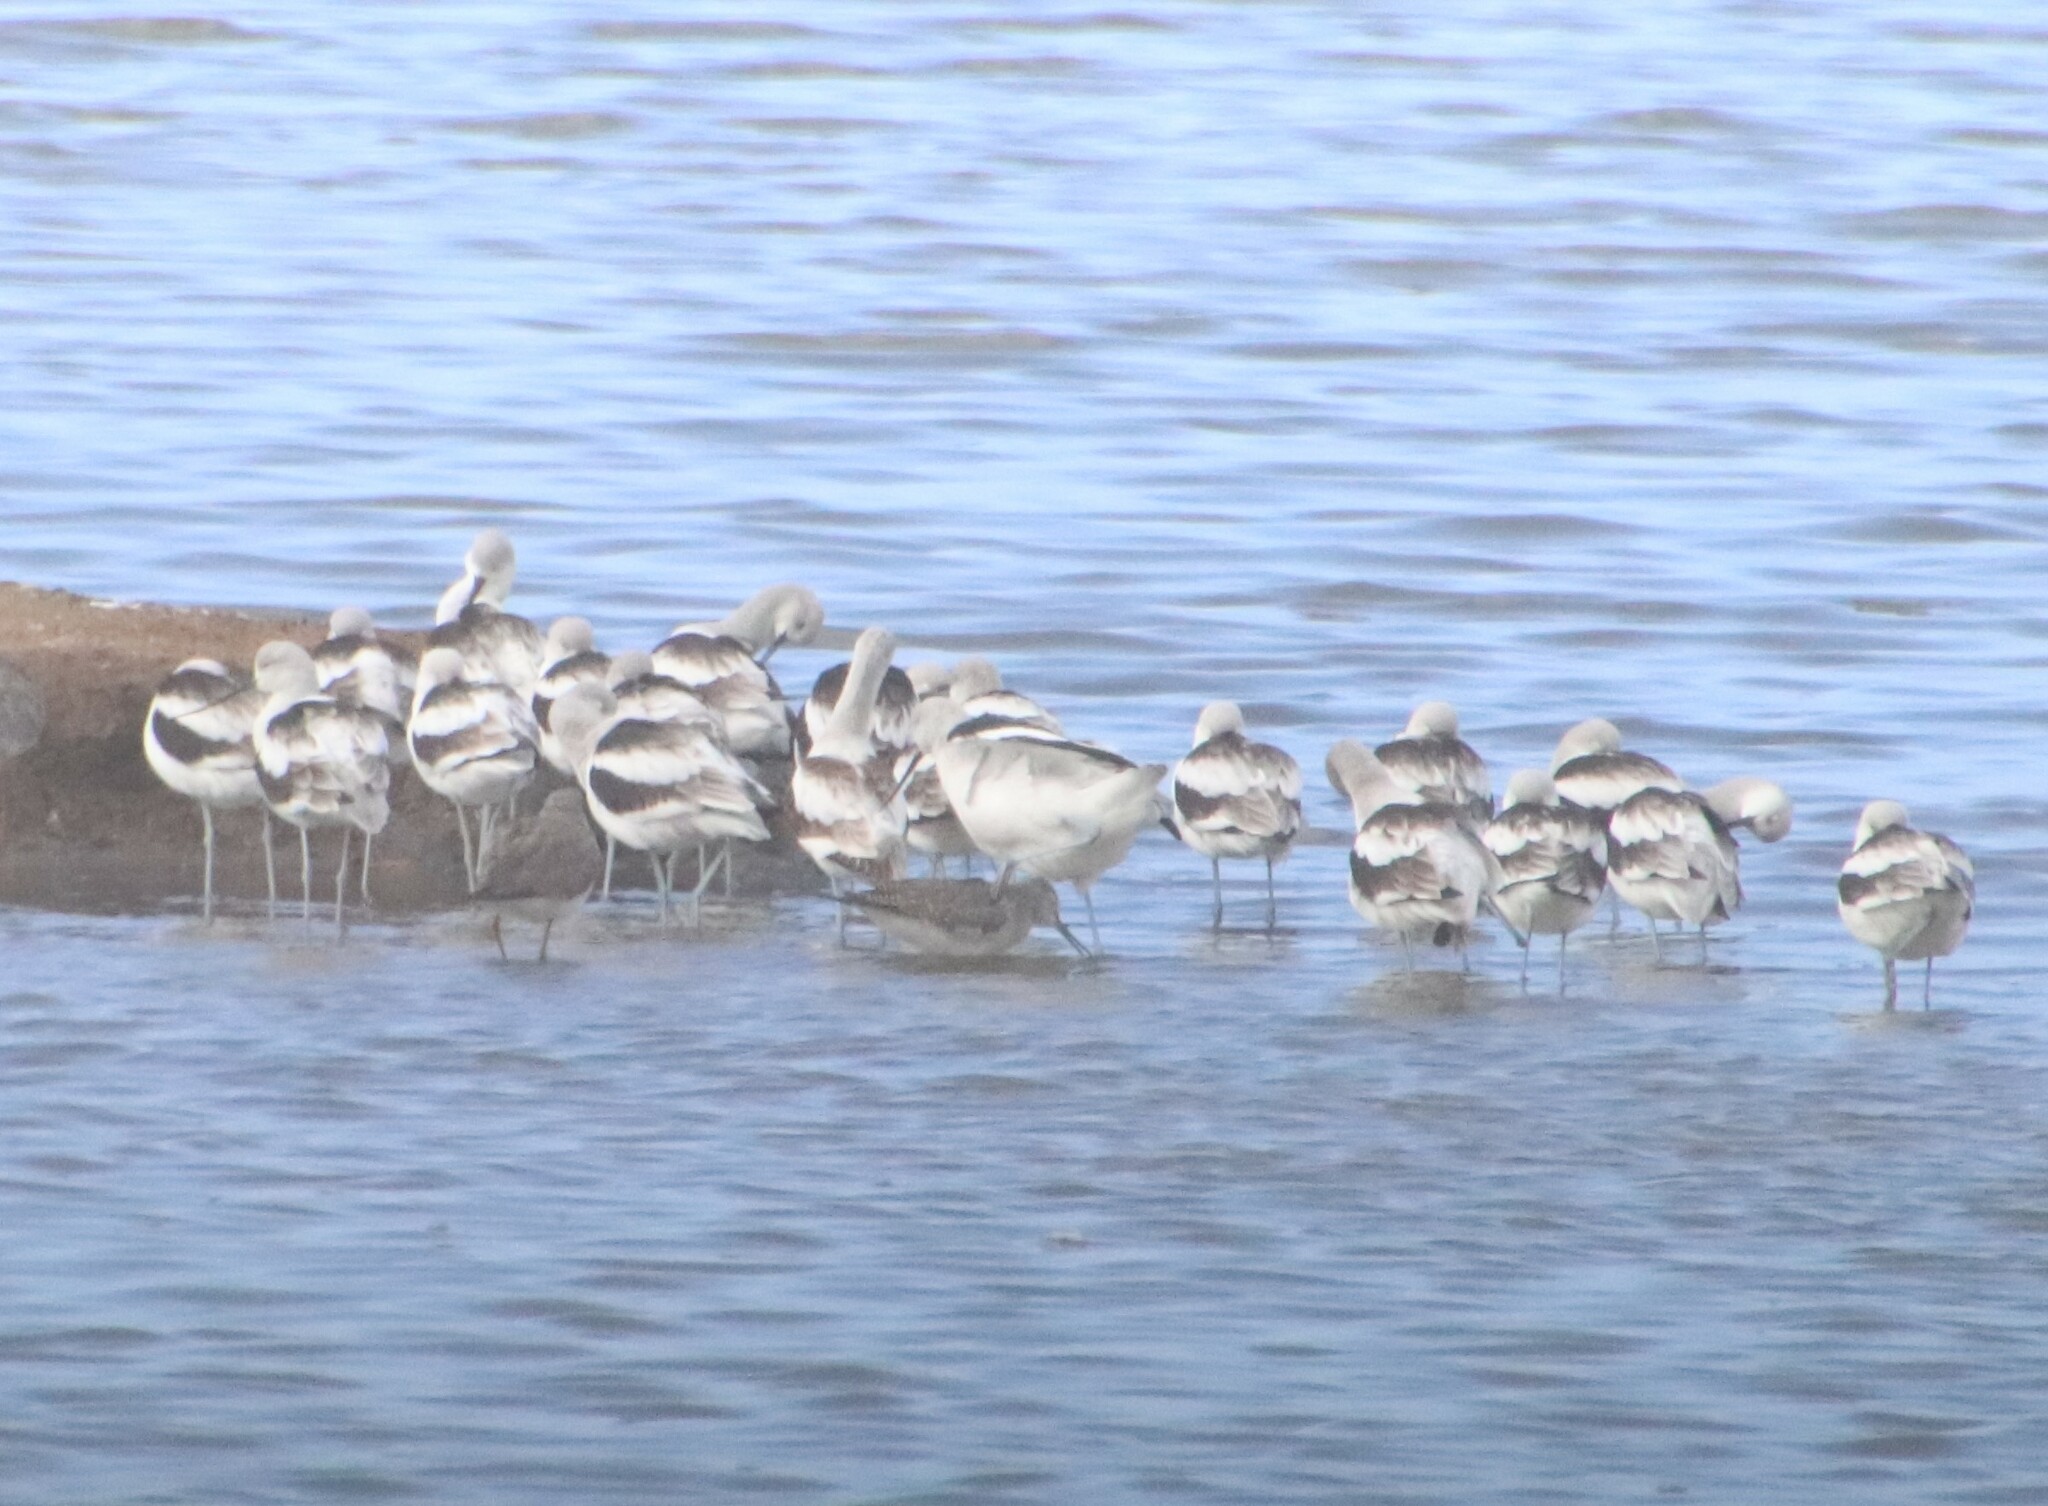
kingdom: Animalia
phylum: Chordata
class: Aves
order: Charadriiformes
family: Recurvirostridae
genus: Recurvirostra
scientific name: Recurvirostra americana
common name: American avocet
